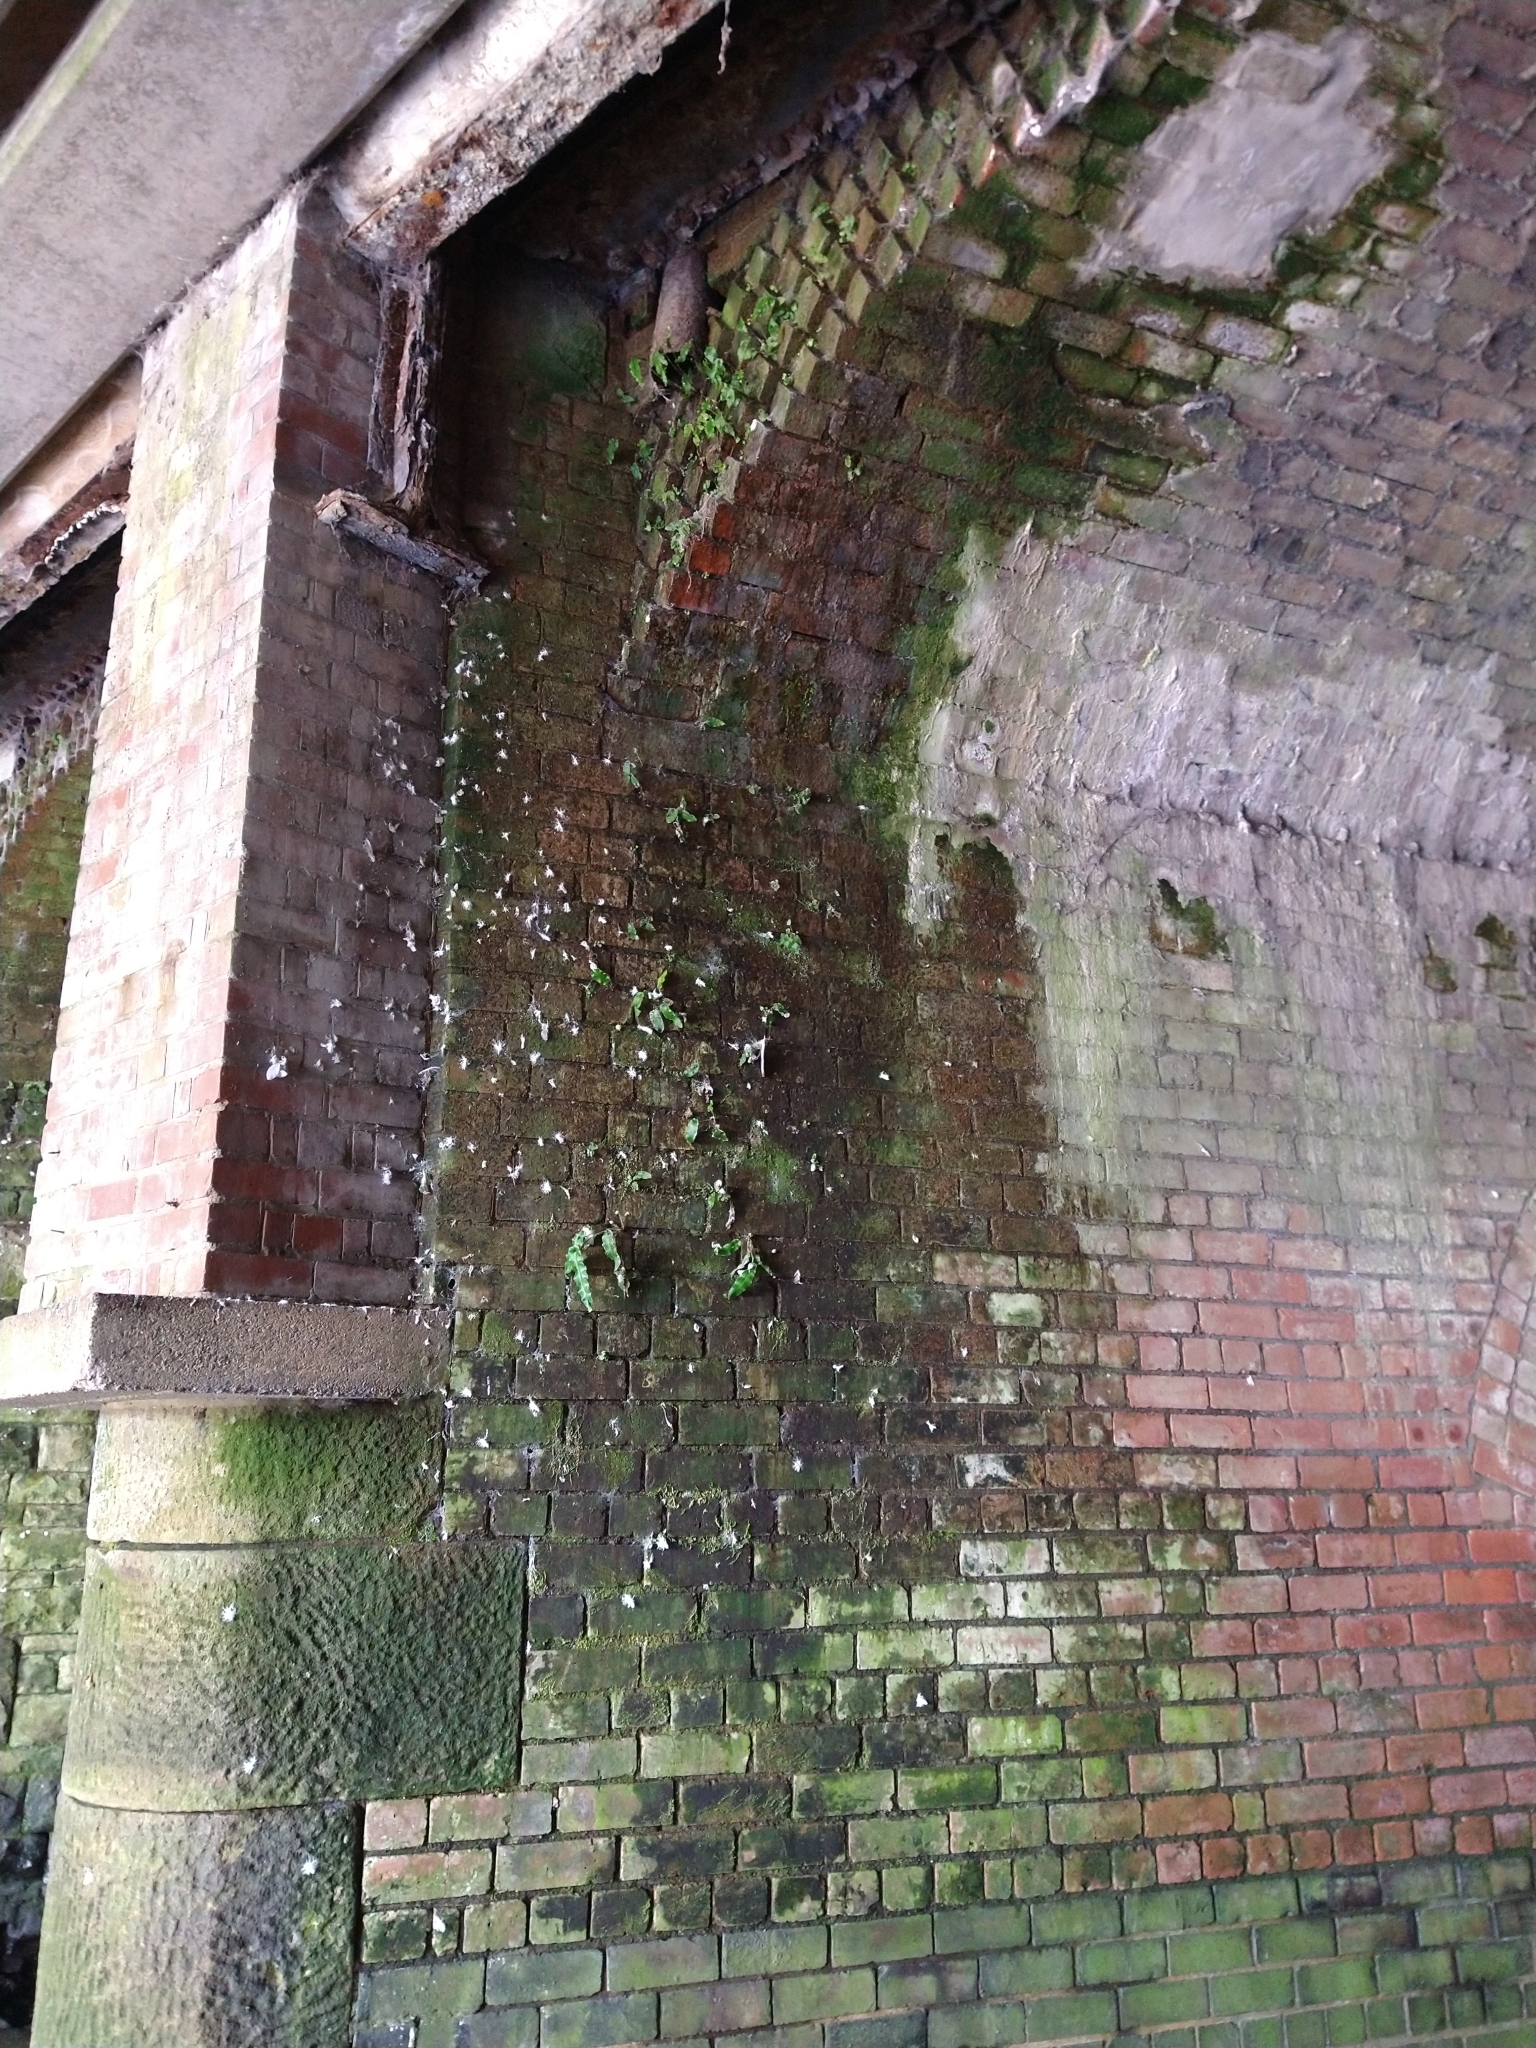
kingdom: Plantae
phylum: Tracheophyta
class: Polypodiopsida
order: Polypodiales
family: Aspleniaceae
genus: Asplenium
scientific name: Asplenium scolopendrium
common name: Hart's-tongue fern
